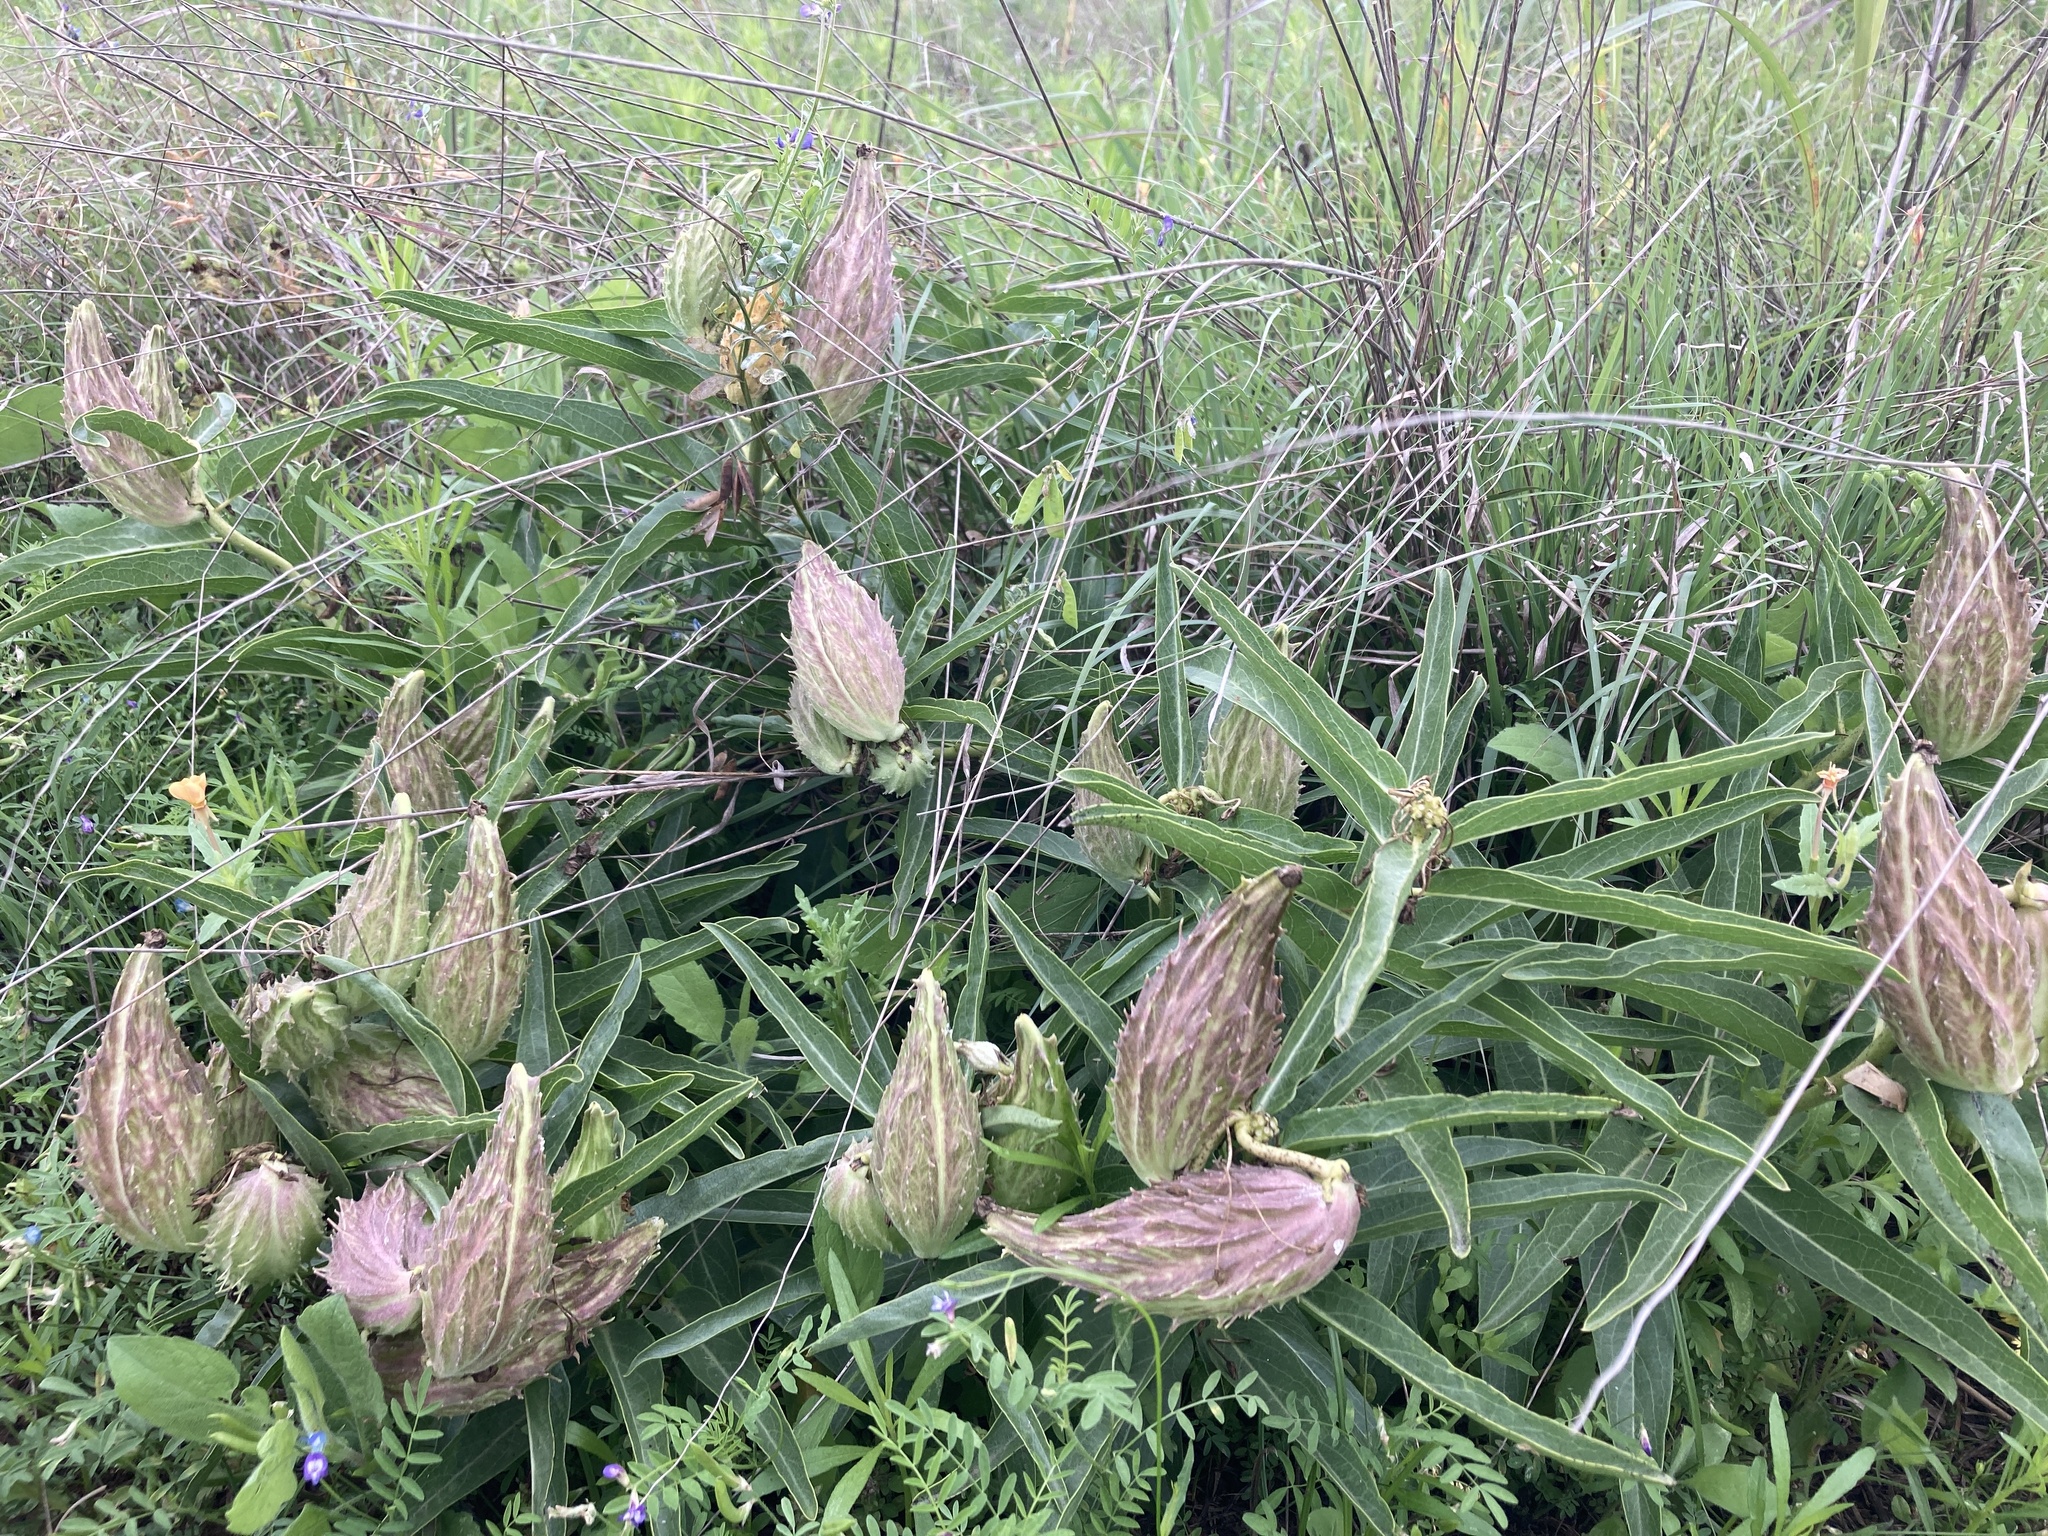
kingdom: Plantae
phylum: Tracheophyta
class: Magnoliopsida
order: Gentianales
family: Apocynaceae
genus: Asclepias
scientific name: Asclepias asperula
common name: Antelope horns
